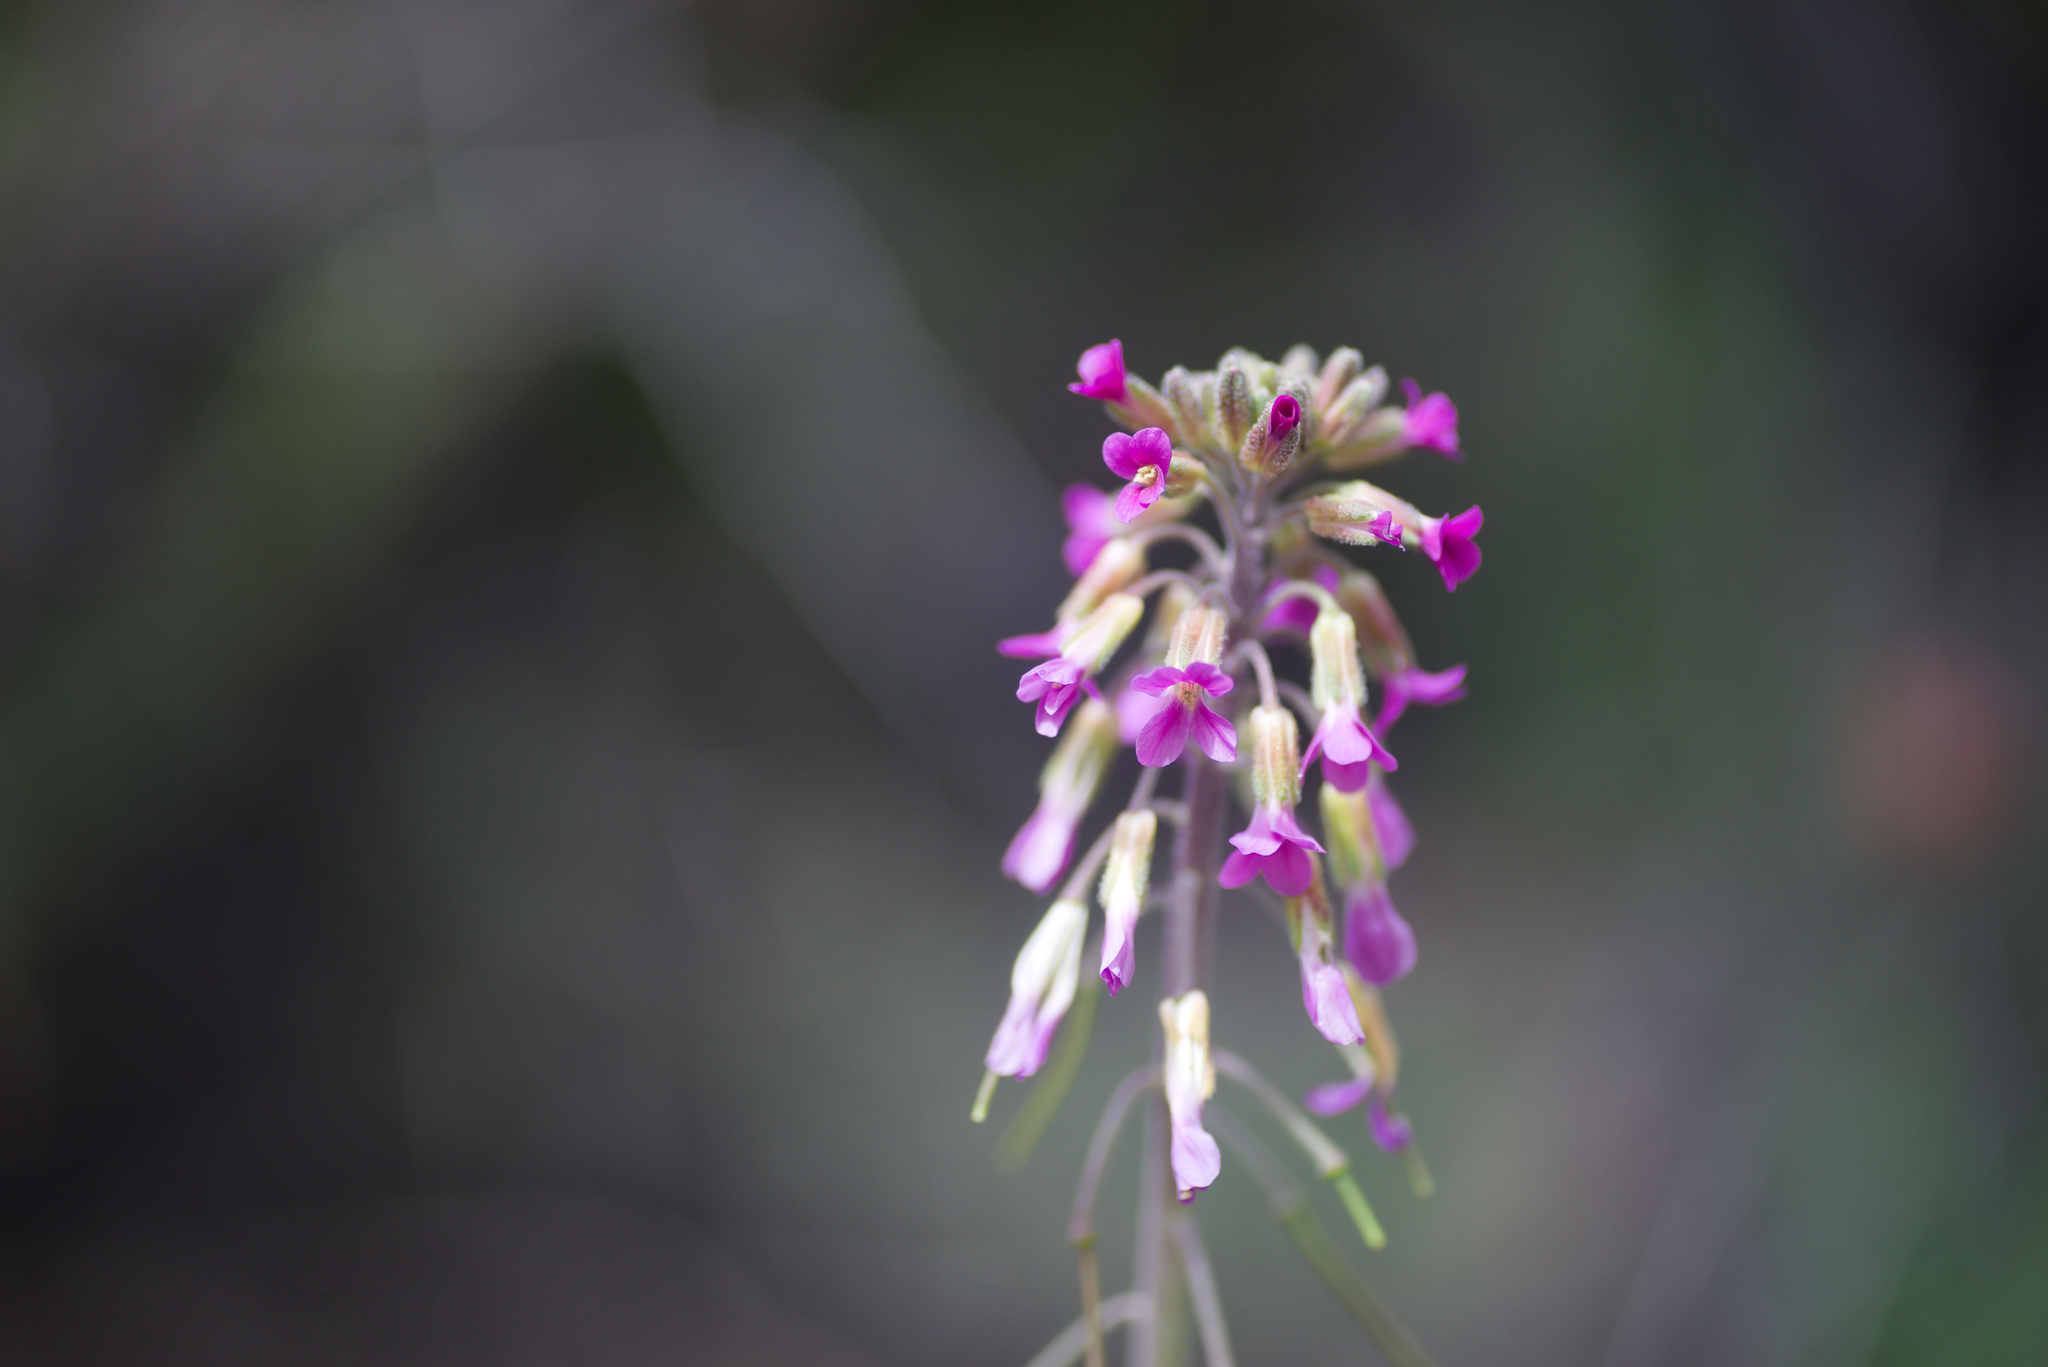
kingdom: Plantae
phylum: Tracheophyta
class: Magnoliopsida
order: Brassicales
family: Brassicaceae
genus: Boechera
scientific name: Boechera californica
